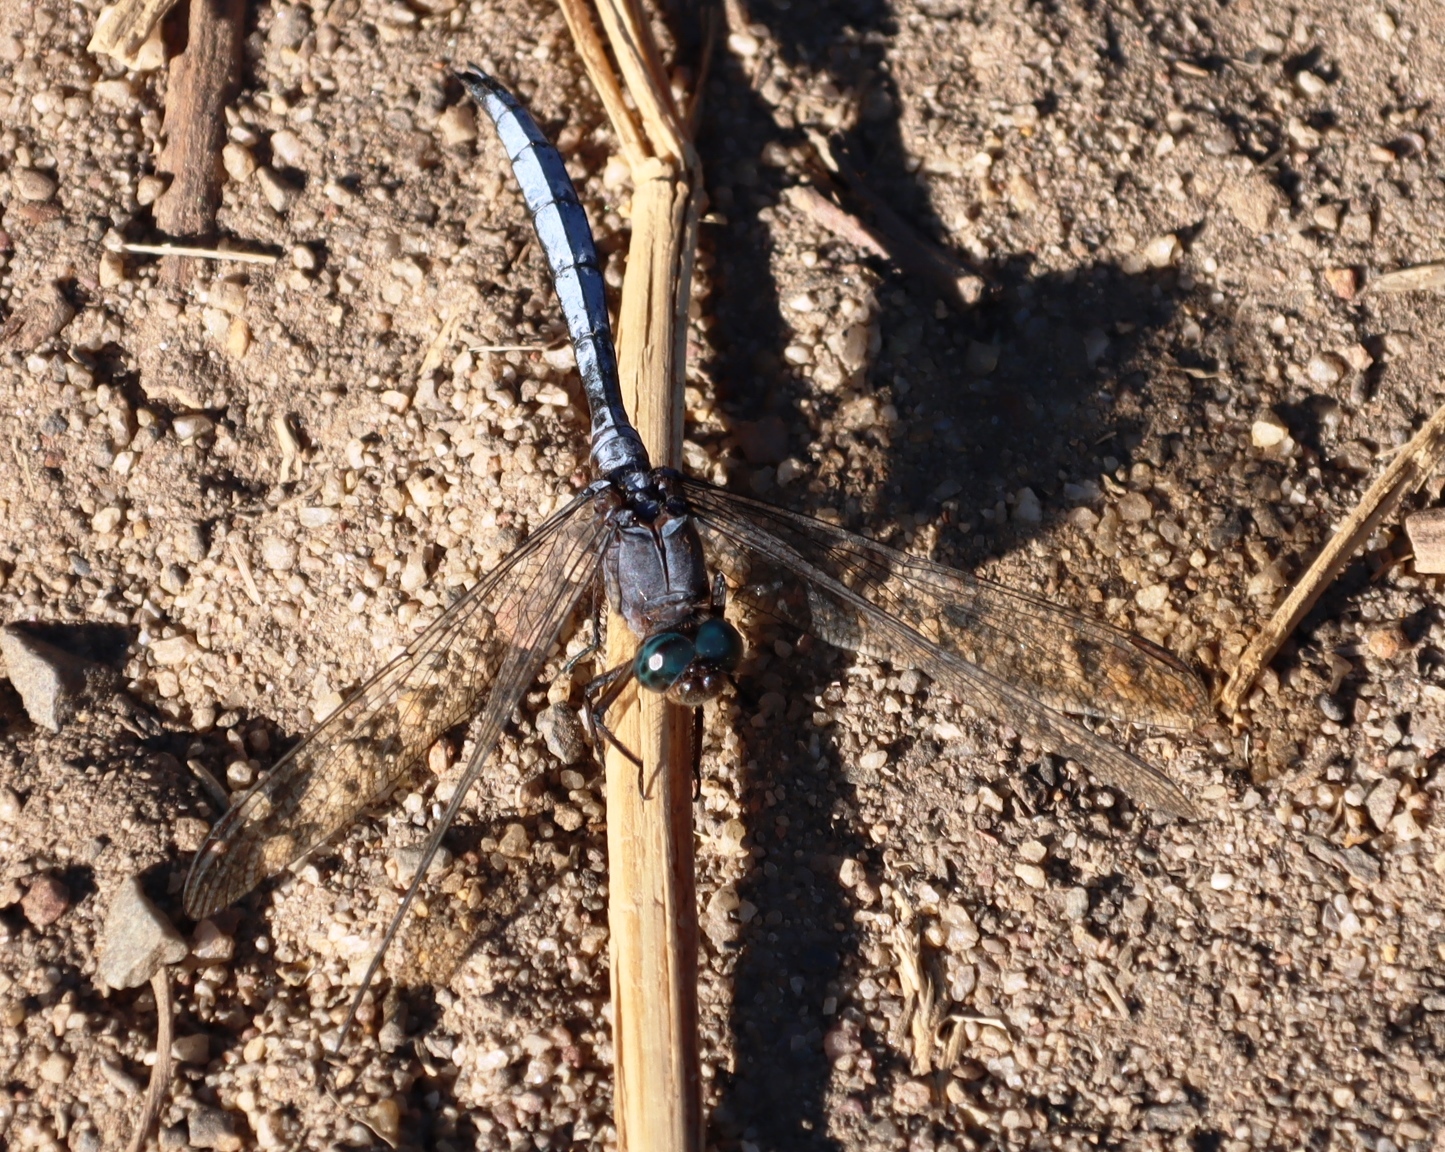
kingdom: Animalia
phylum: Arthropoda
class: Insecta
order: Odonata
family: Libellulidae
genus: Orthetrum
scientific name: Orthetrum julia
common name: Julia skimmer
